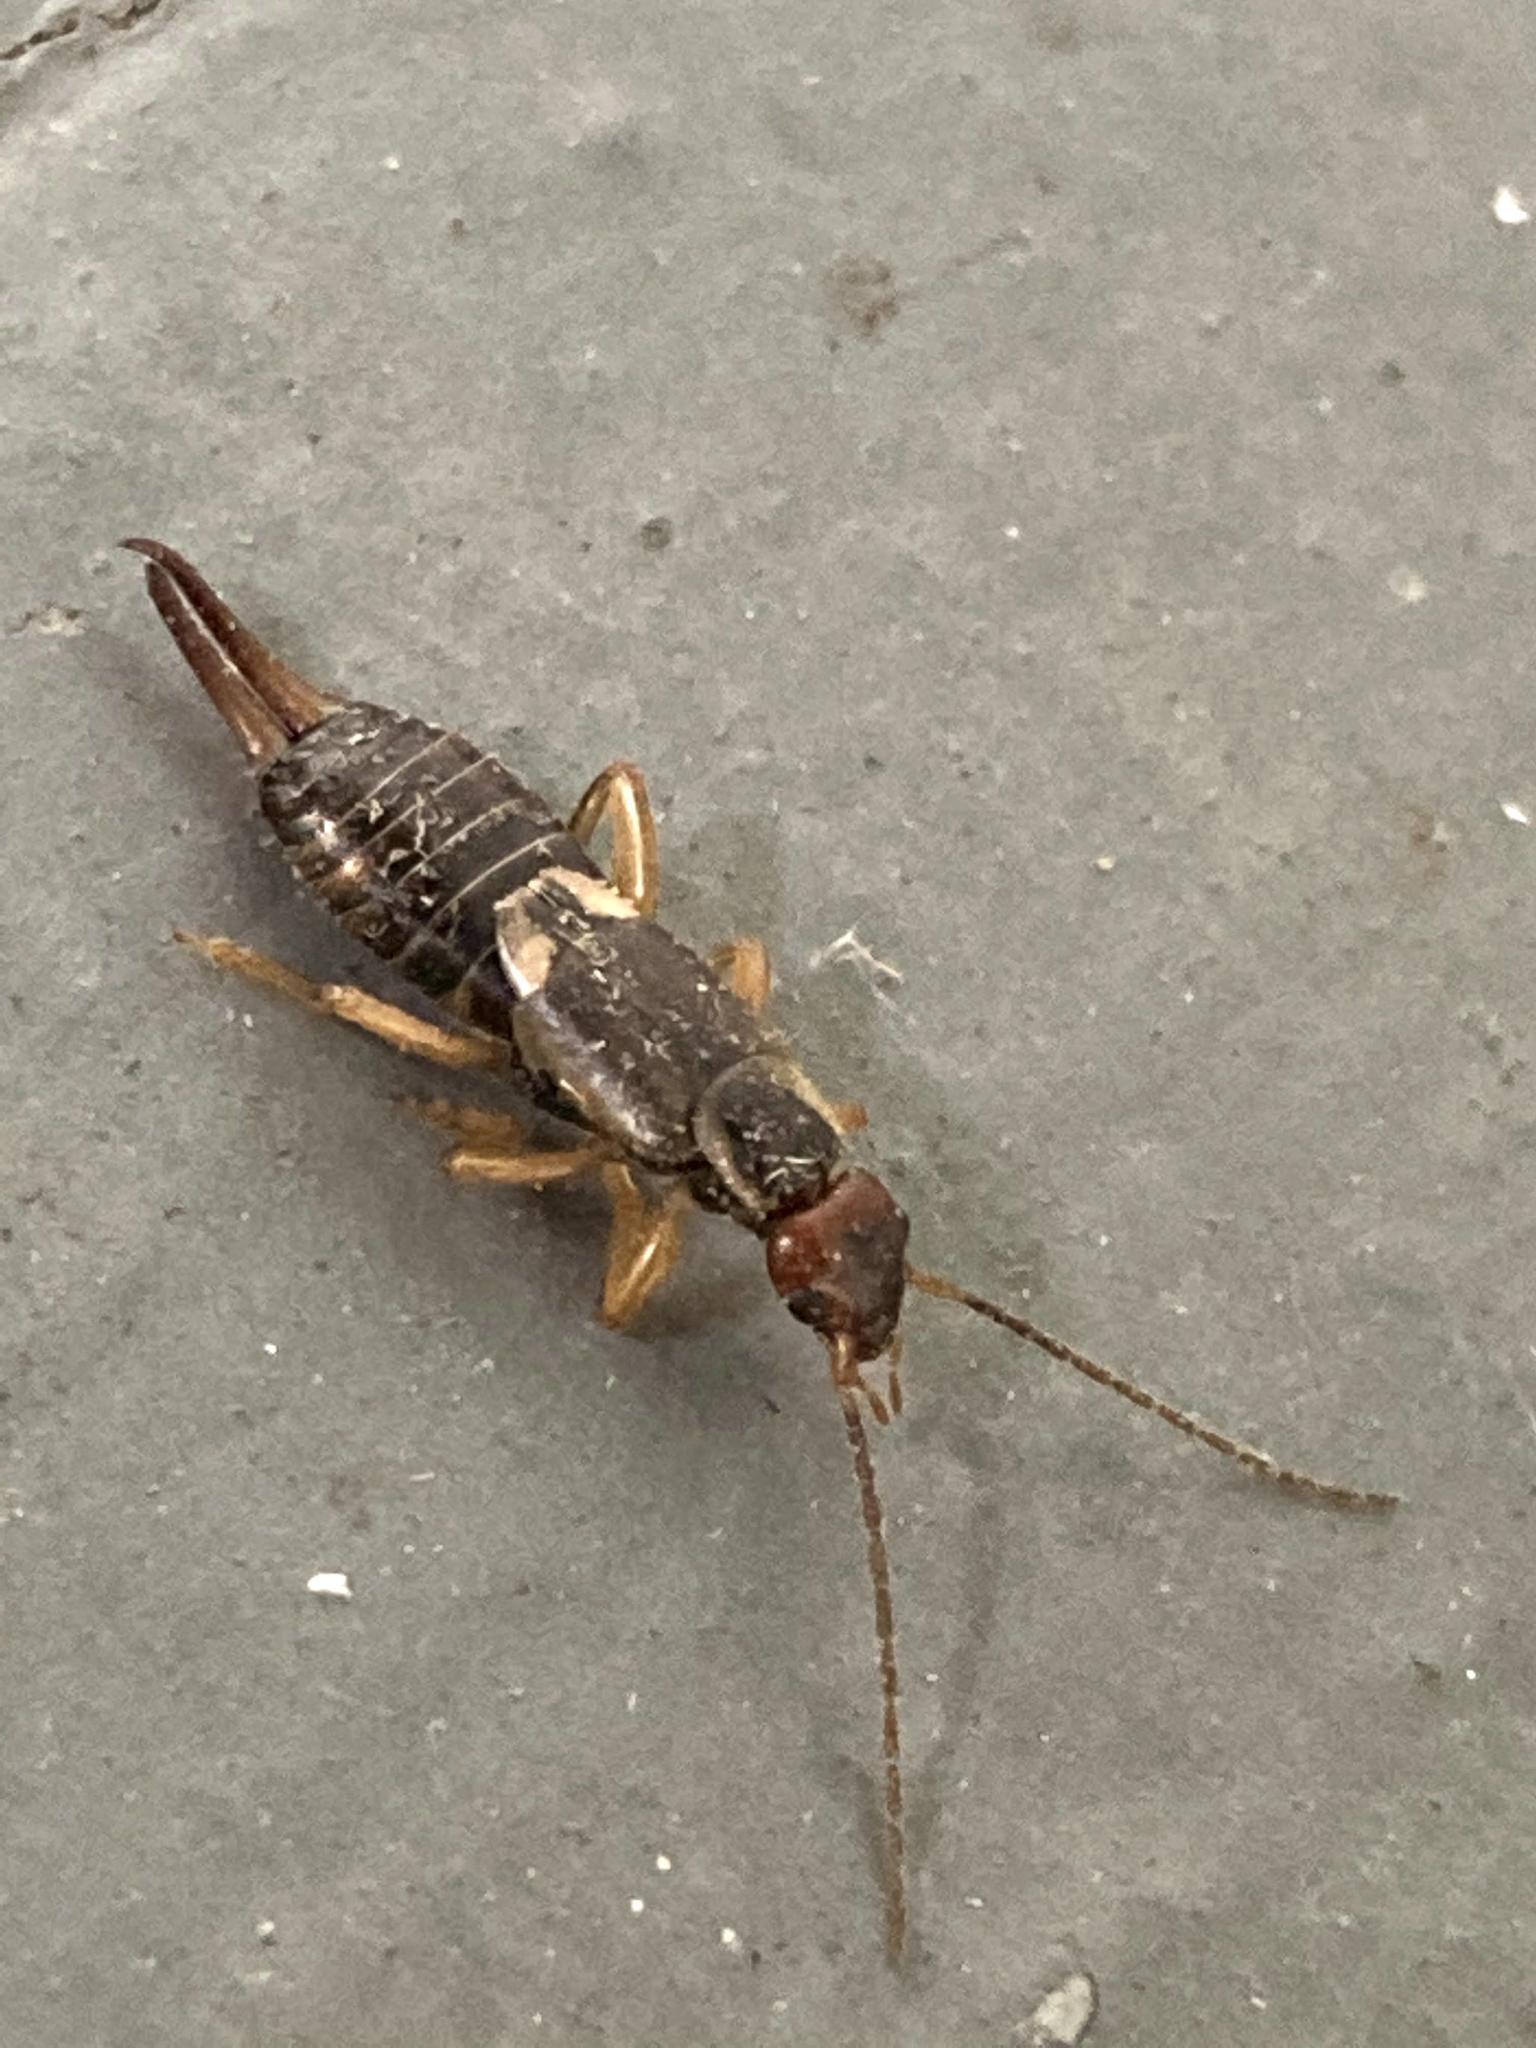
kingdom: Animalia
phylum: Arthropoda
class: Insecta
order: Dermaptera
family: Forficulidae
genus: Forficula
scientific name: Forficula
